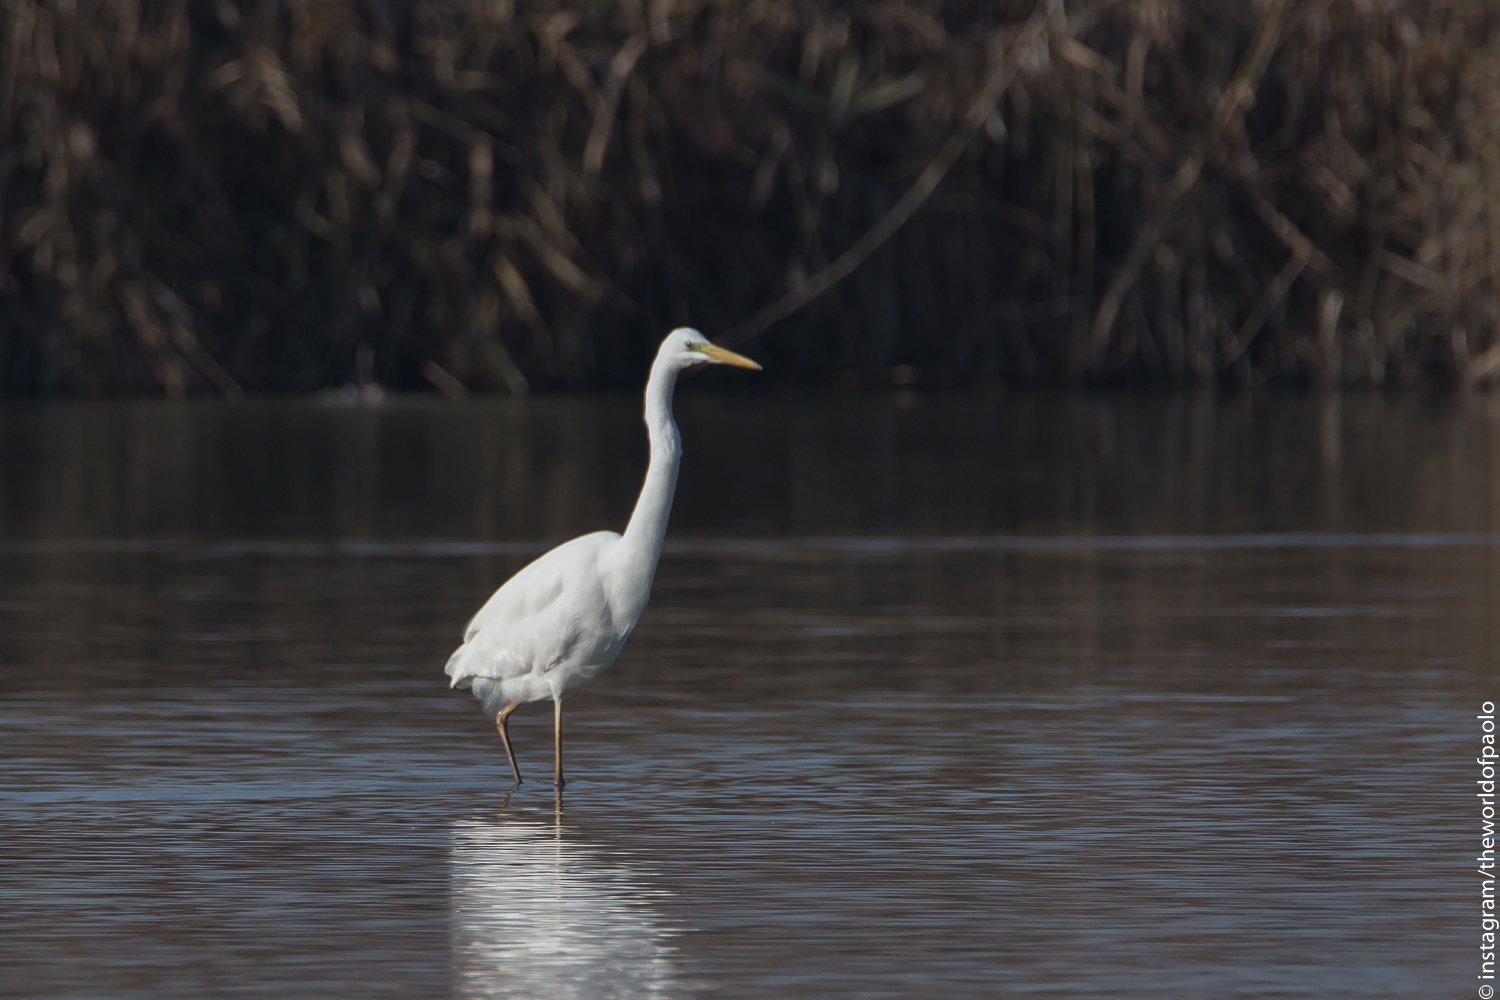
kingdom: Animalia
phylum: Chordata
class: Aves
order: Pelecaniformes
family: Ardeidae
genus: Ardea
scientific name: Ardea alba
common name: Great egret
